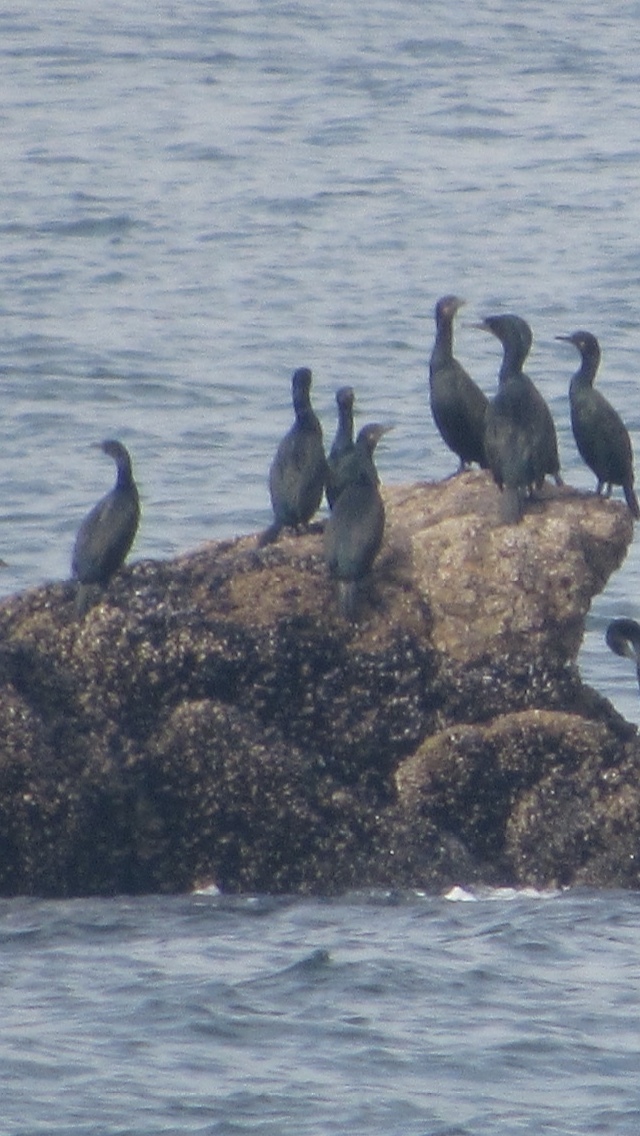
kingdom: Animalia
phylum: Chordata
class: Aves
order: Suliformes
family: Phalacrocoracidae
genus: Urile
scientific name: Urile penicillatus
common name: Brandt's cormorant
